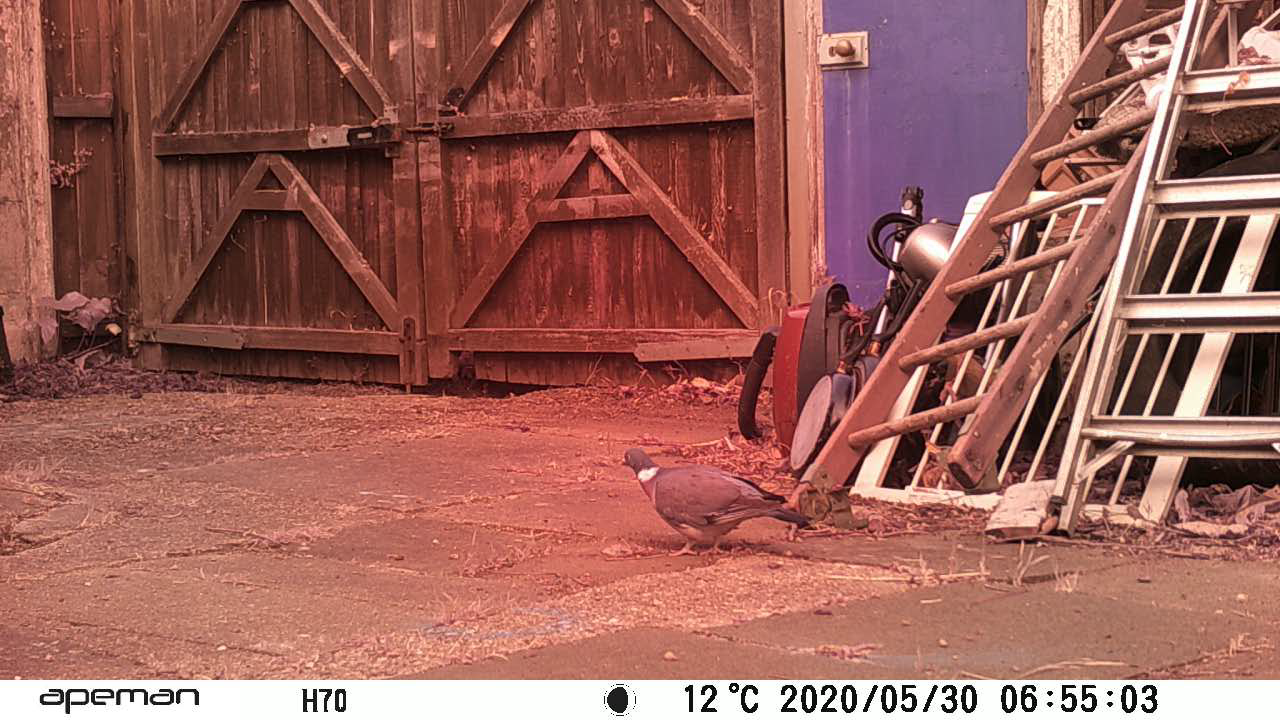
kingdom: Animalia
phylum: Chordata
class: Aves
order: Columbiformes
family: Columbidae
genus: Columba
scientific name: Columba palumbus
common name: Common wood pigeon
